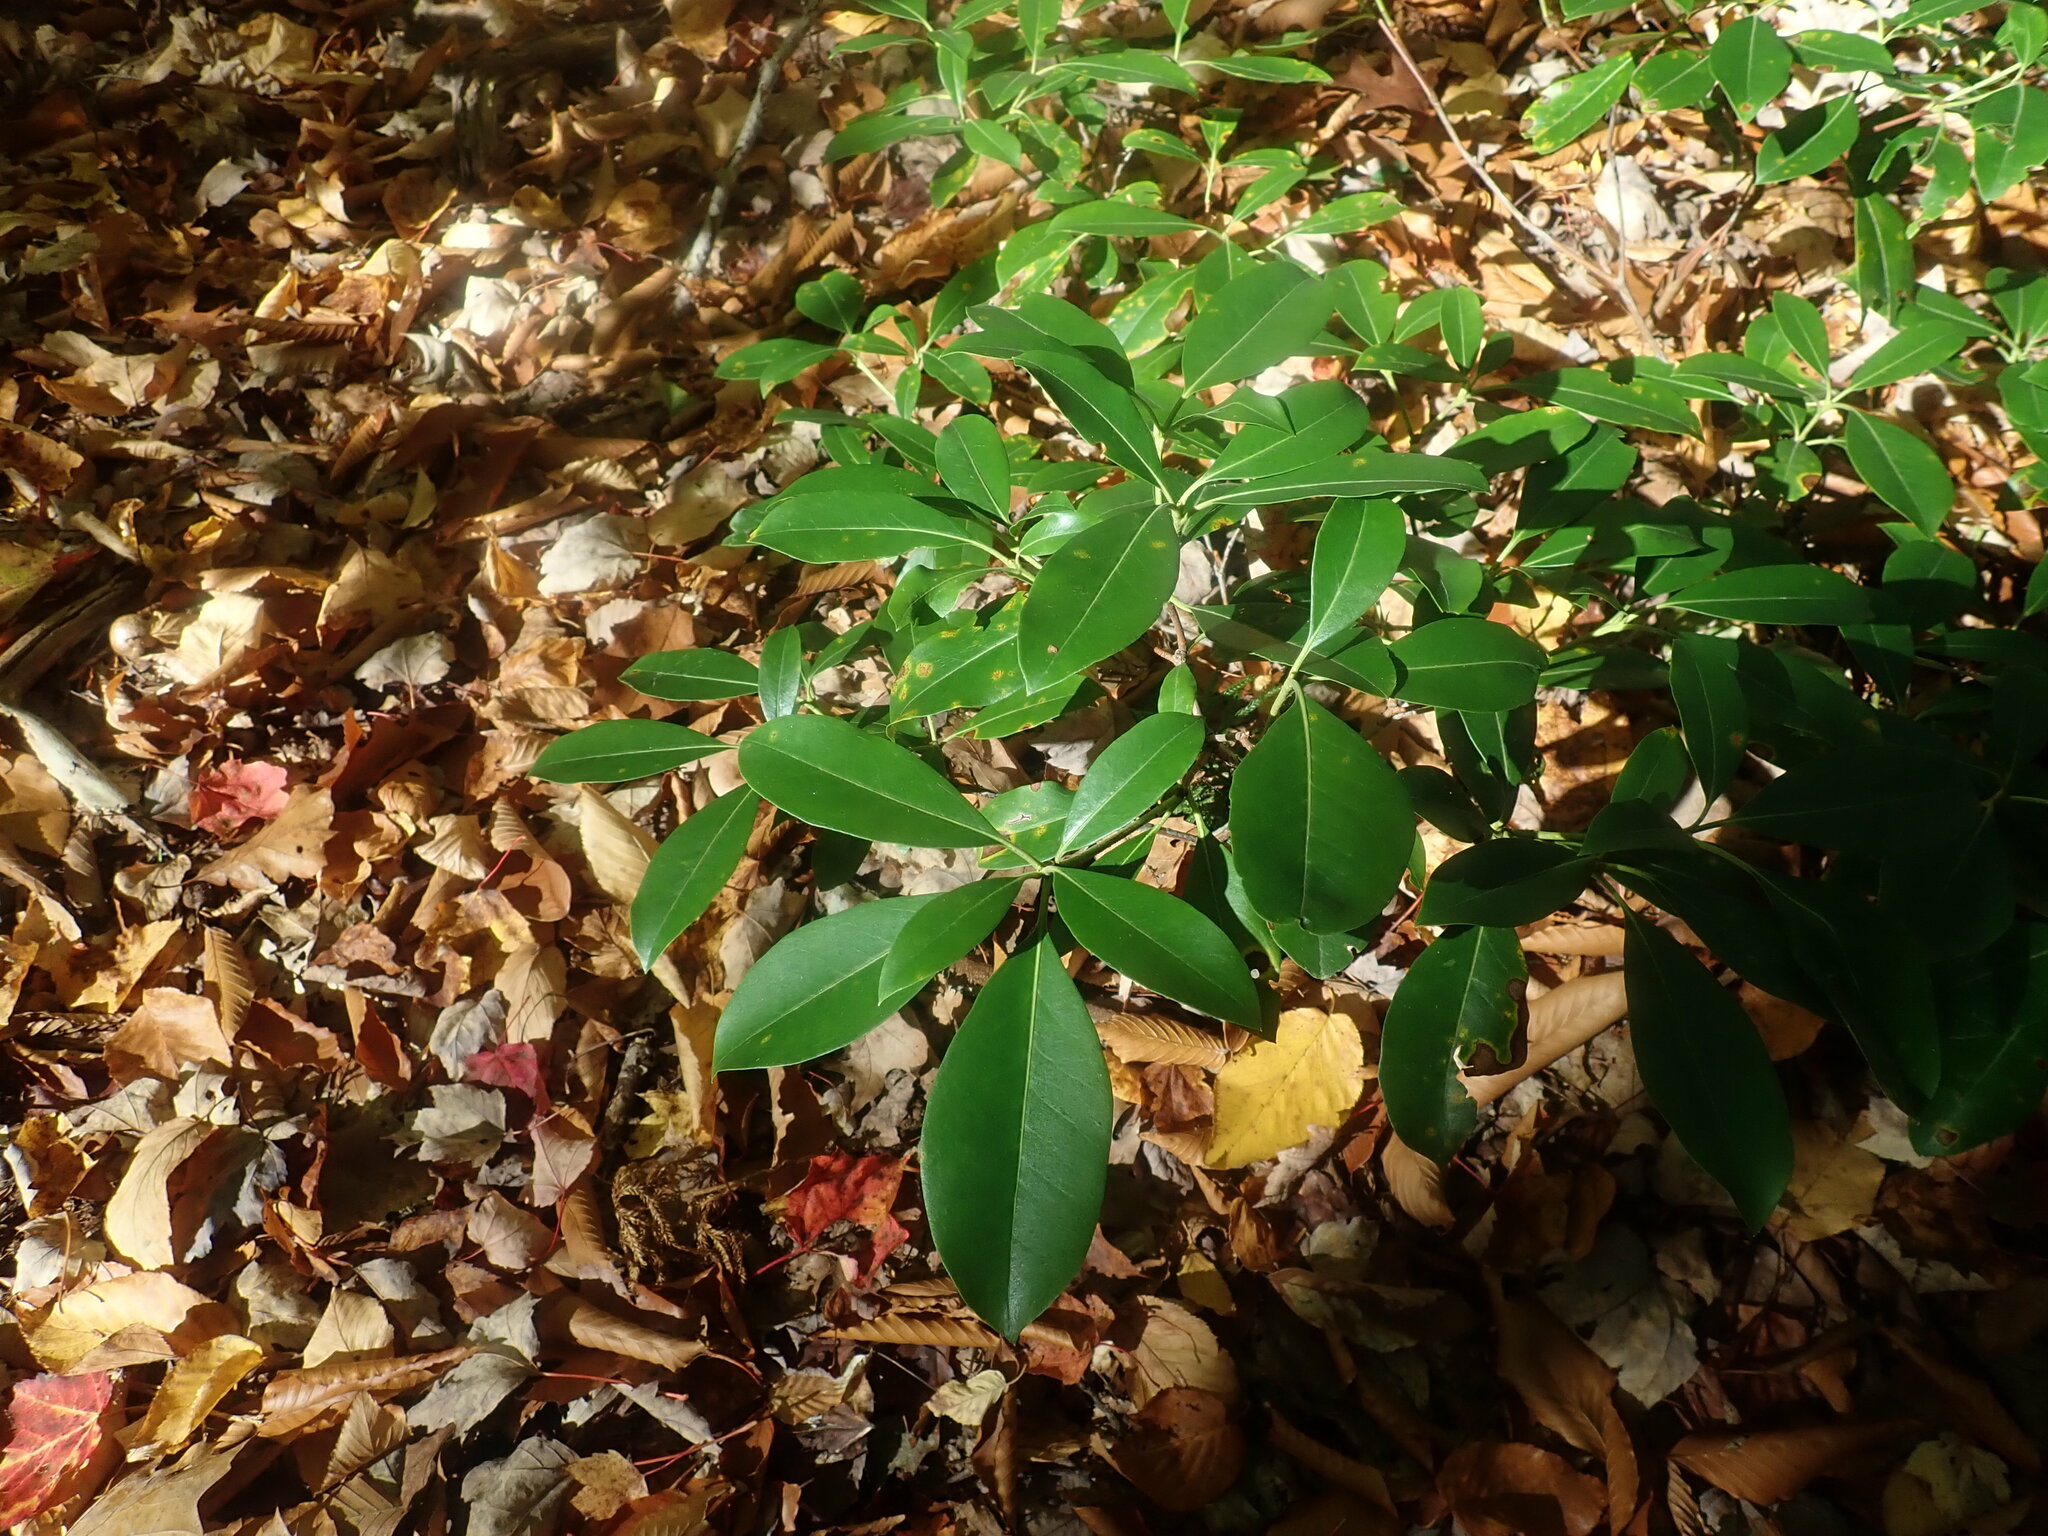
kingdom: Plantae
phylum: Tracheophyta
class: Magnoliopsida
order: Ericales
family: Ericaceae
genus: Kalmia
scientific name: Kalmia latifolia
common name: Mountain-laurel
